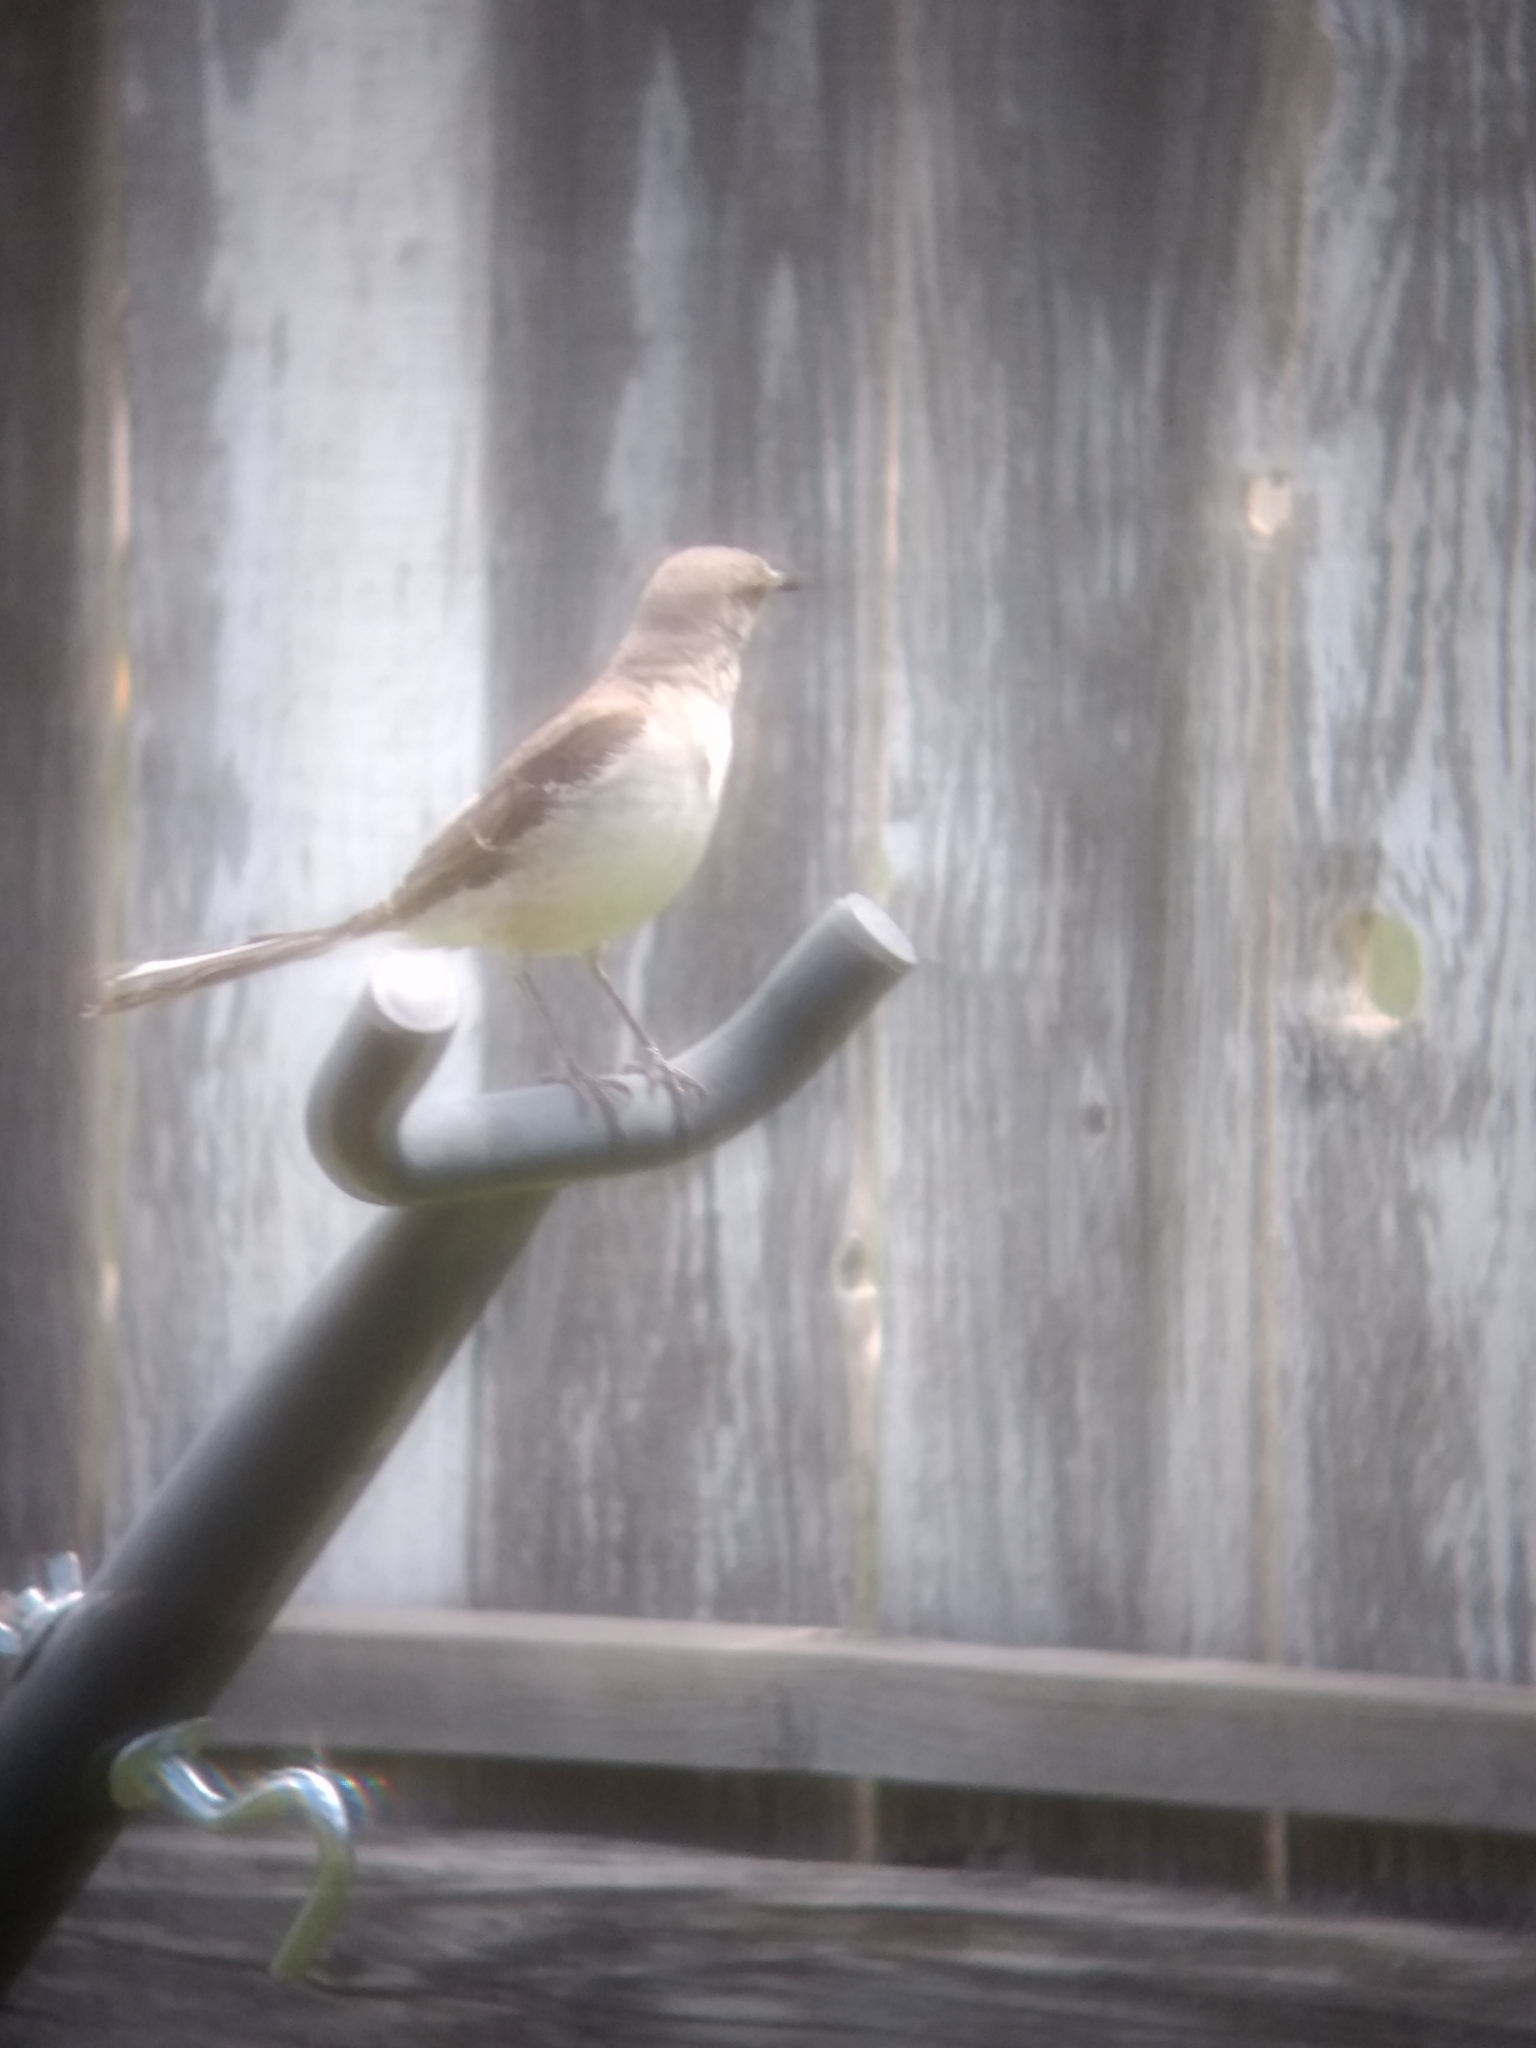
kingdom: Animalia
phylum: Chordata
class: Aves
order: Passeriformes
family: Mimidae
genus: Mimus
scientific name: Mimus polyglottos
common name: Northern mockingbird
